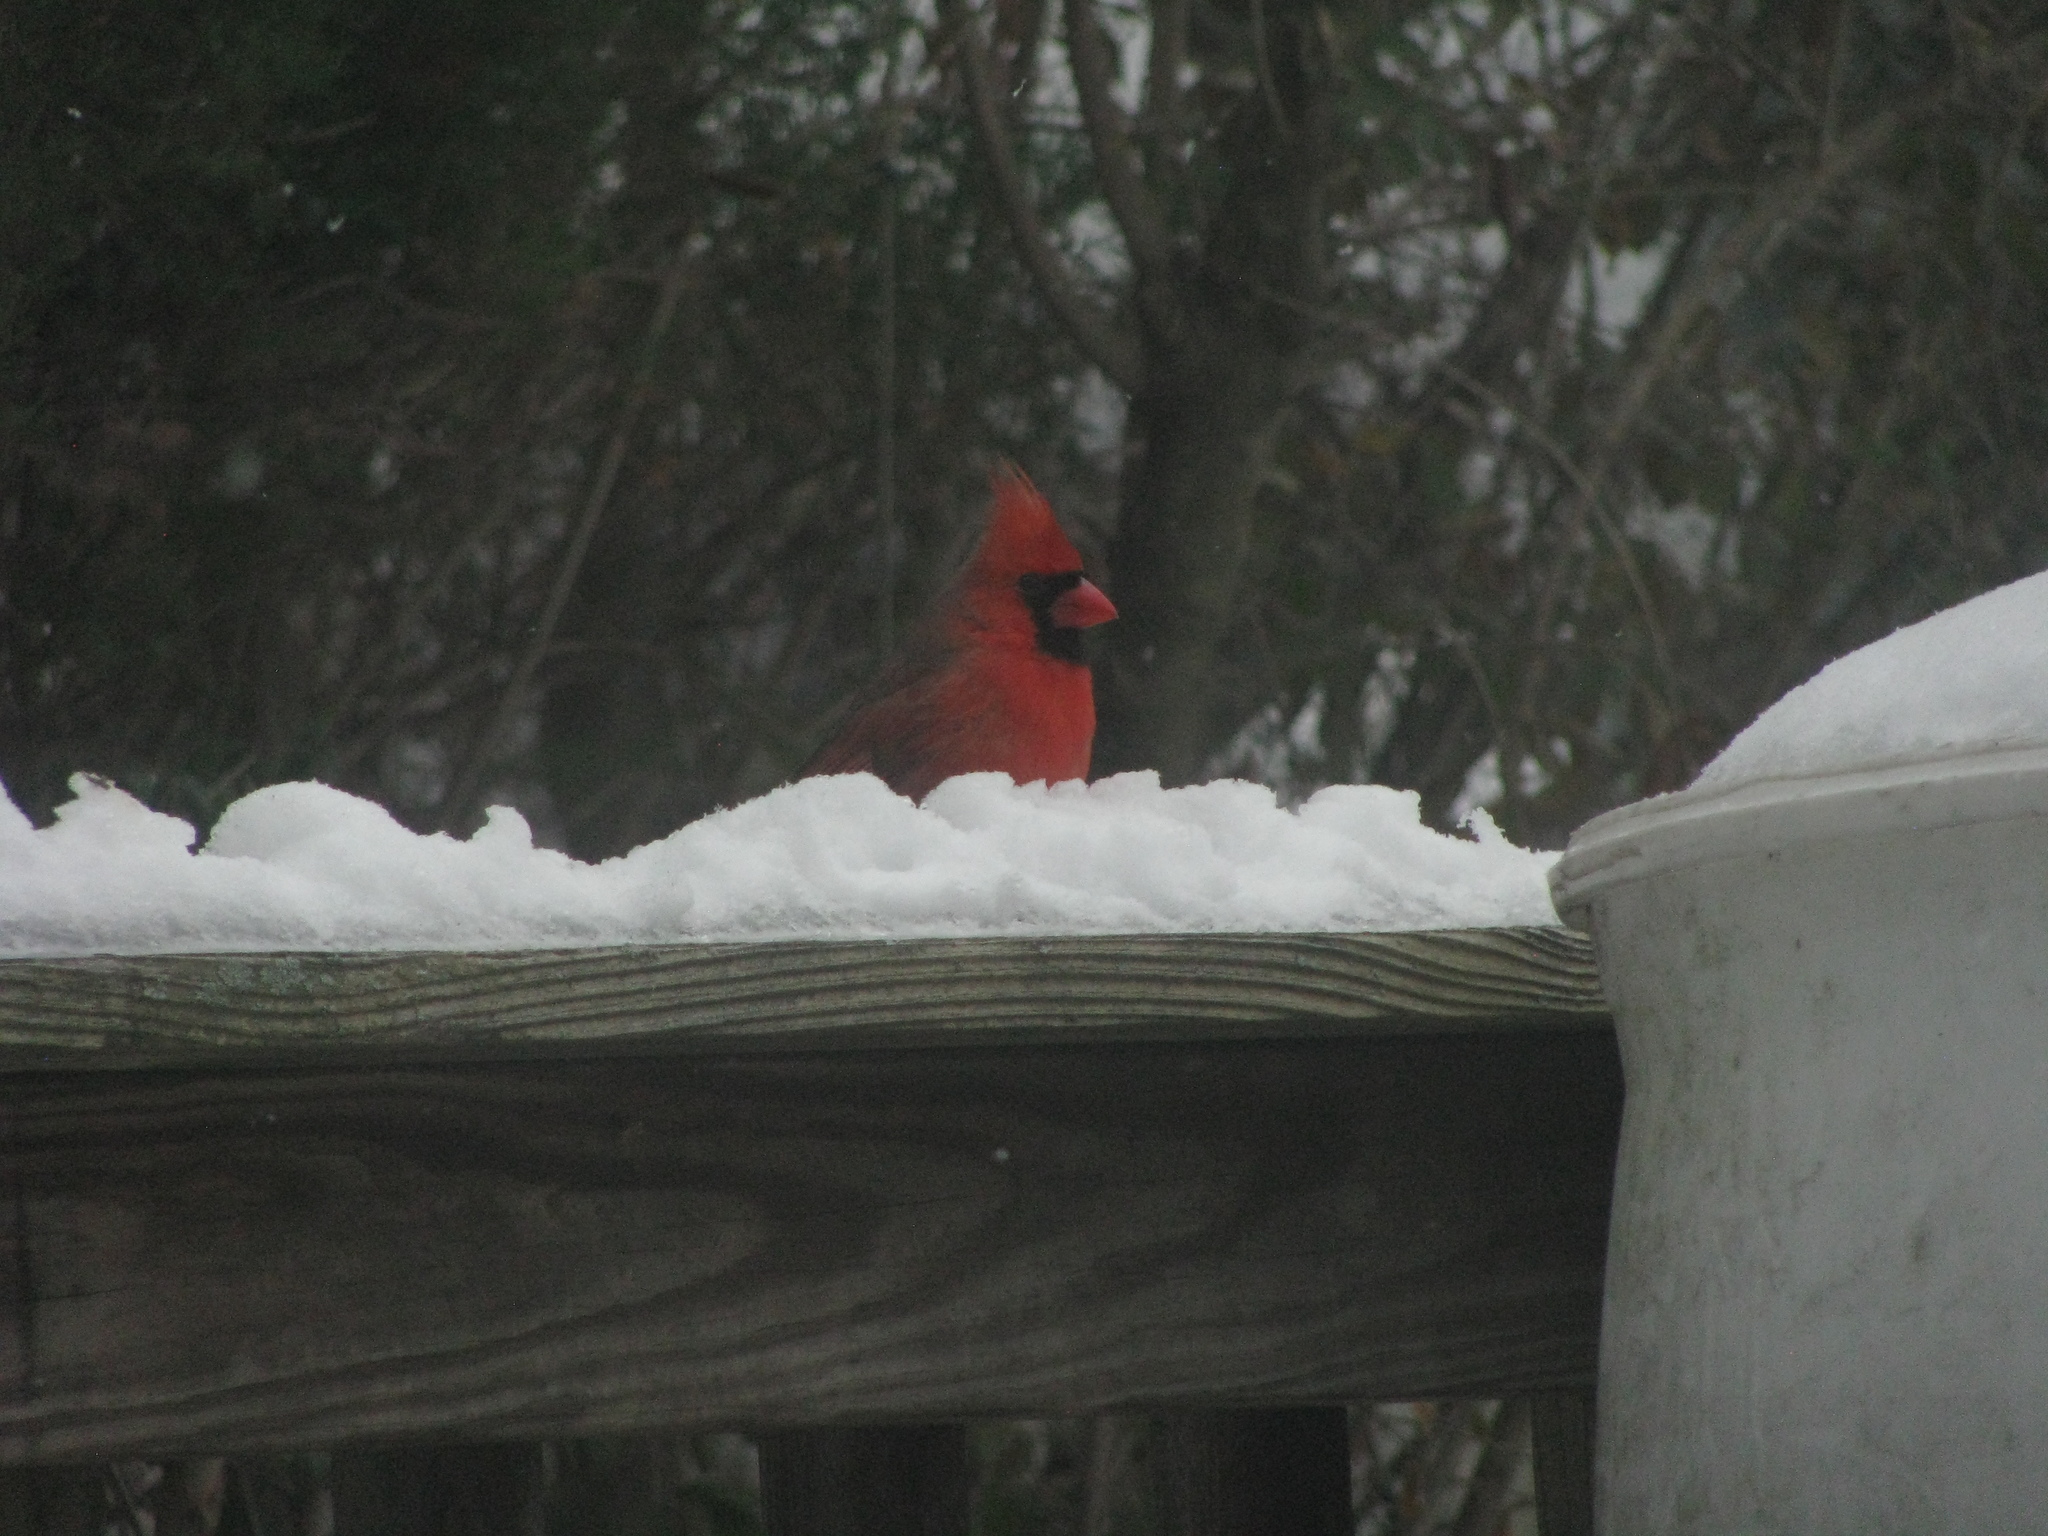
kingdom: Animalia
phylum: Chordata
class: Aves
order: Passeriformes
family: Cardinalidae
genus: Cardinalis
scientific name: Cardinalis cardinalis
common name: Northern cardinal
